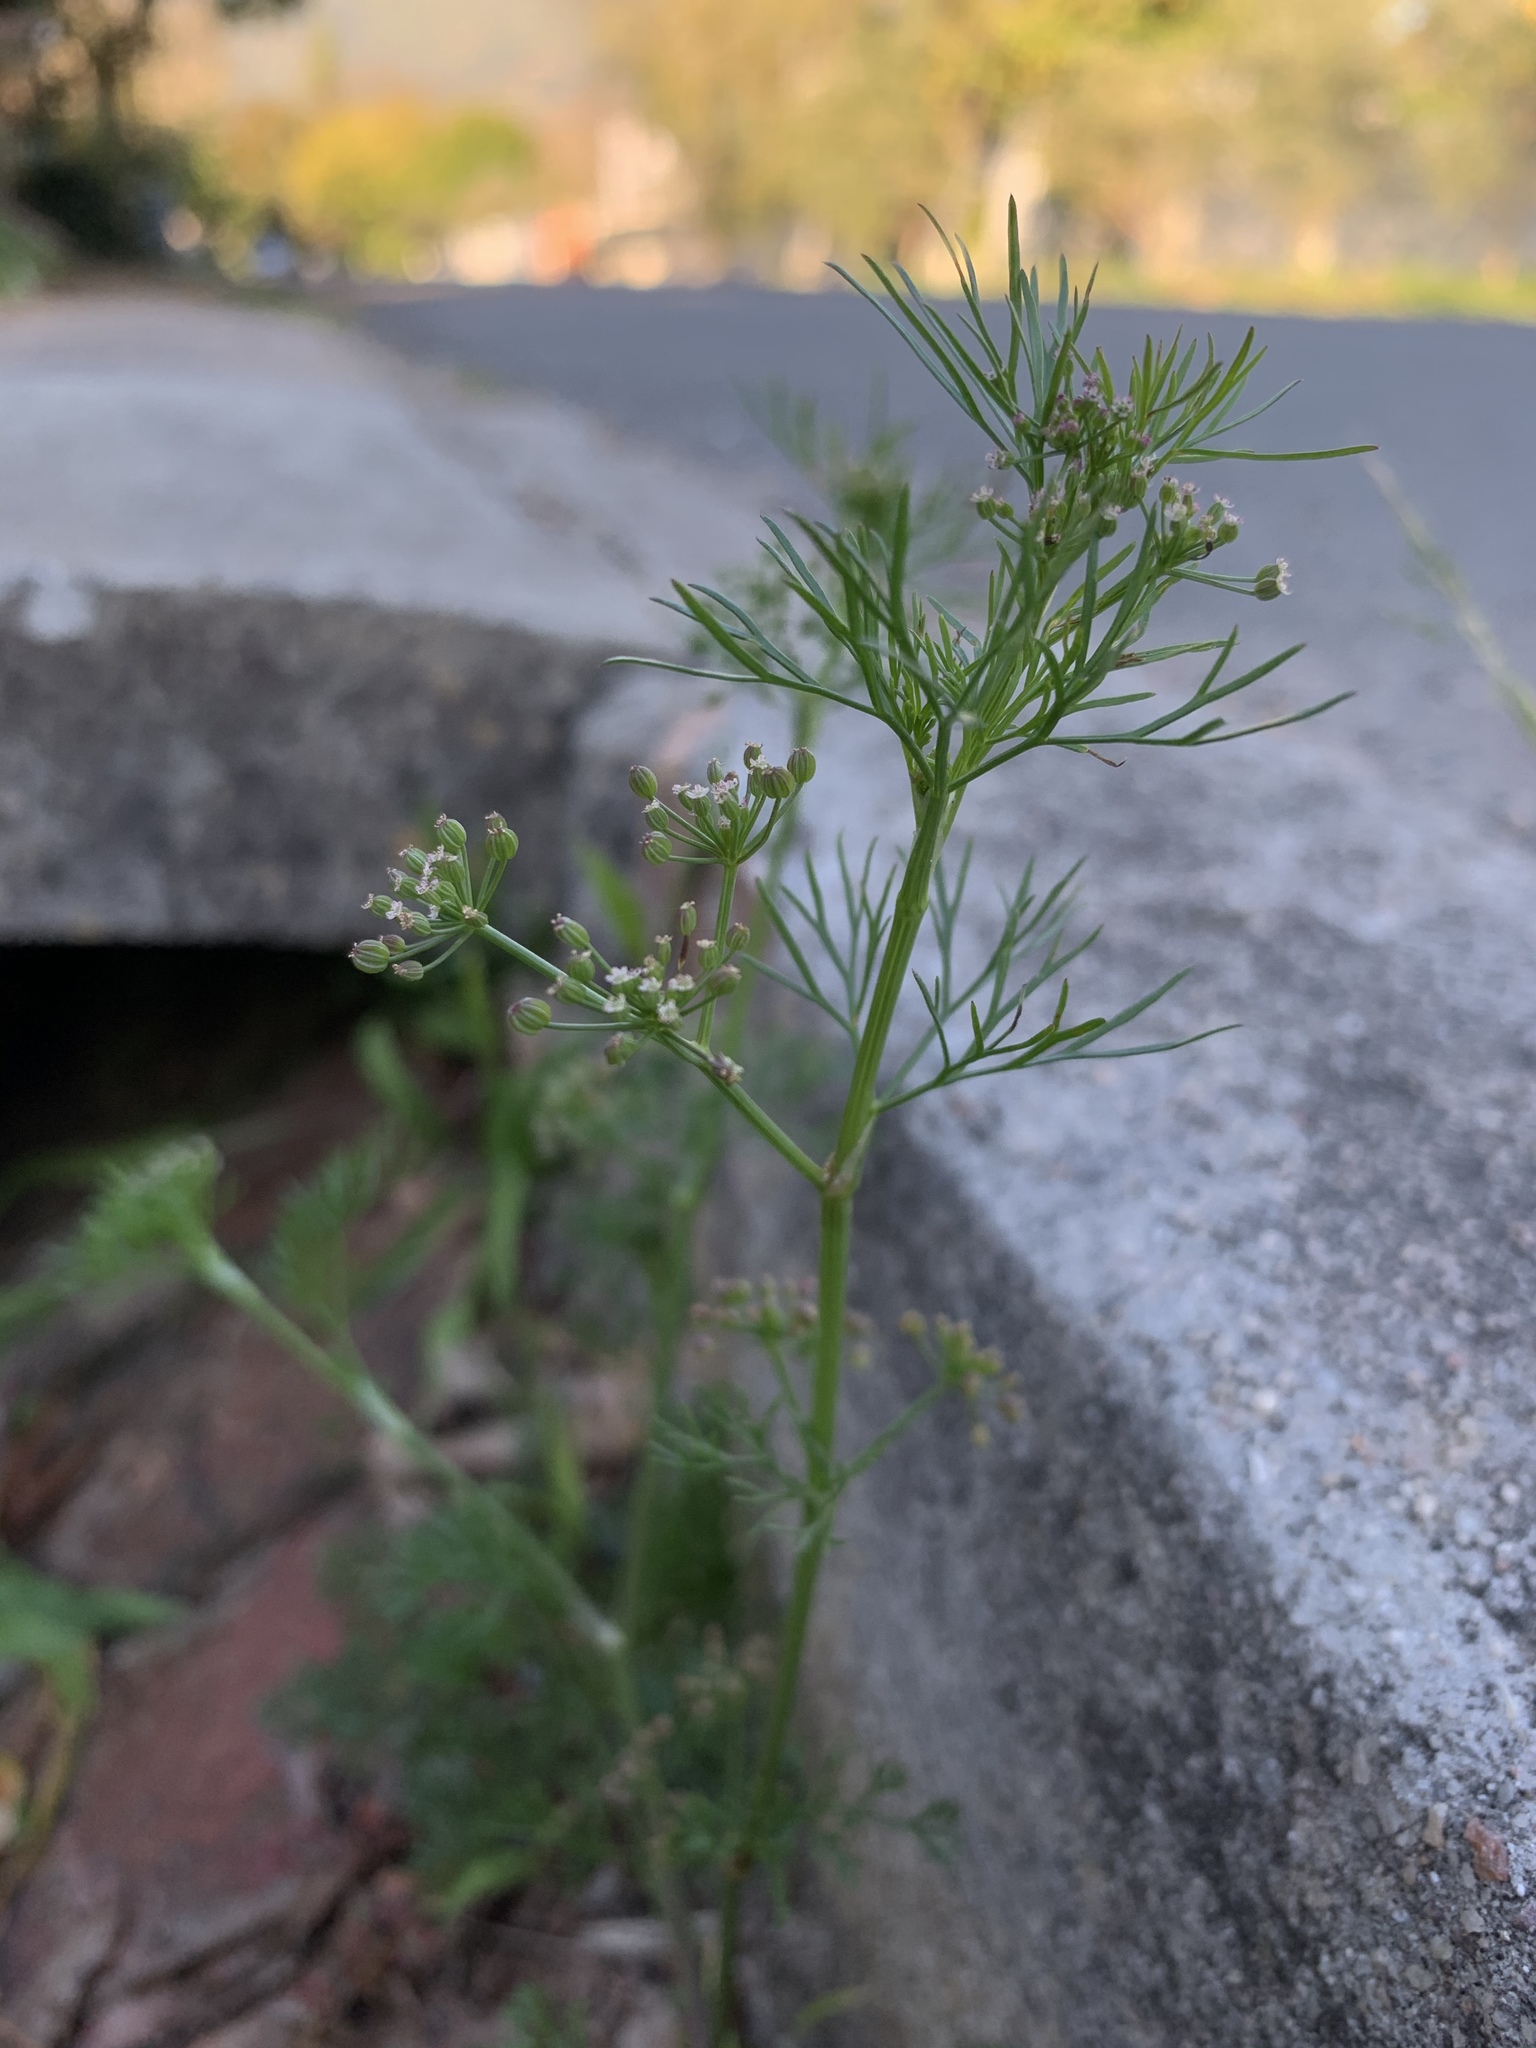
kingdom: Plantae
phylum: Tracheophyta
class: Magnoliopsida
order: Apiales
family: Apiaceae
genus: Cyclospermum
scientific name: Cyclospermum leptophyllum
